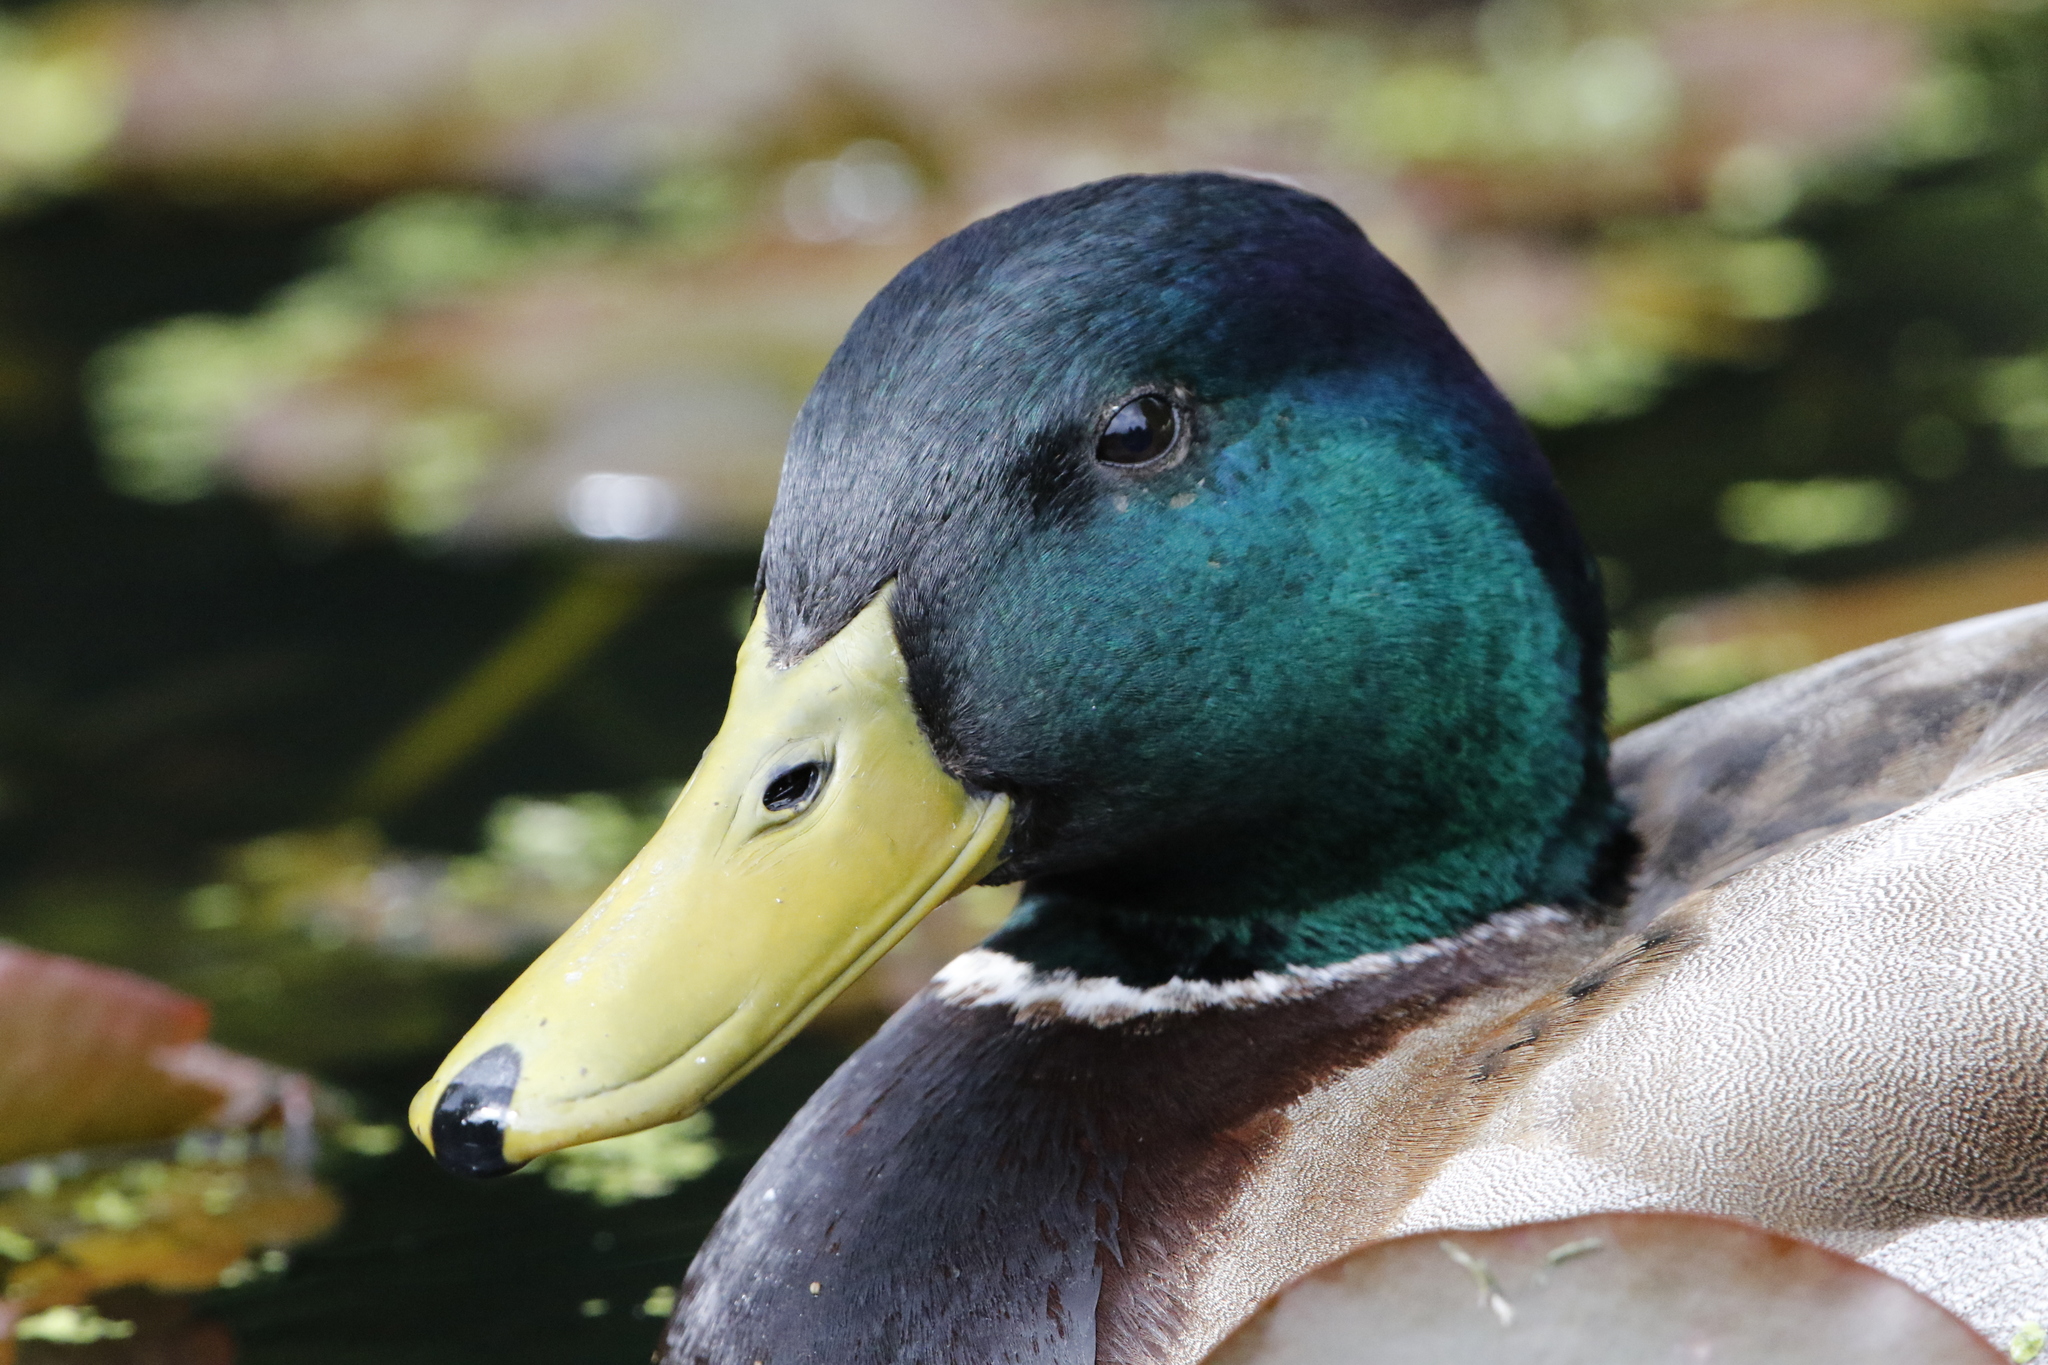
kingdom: Animalia
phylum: Chordata
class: Aves
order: Anseriformes
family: Anatidae
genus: Anas
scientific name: Anas platyrhynchos
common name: Mallard
